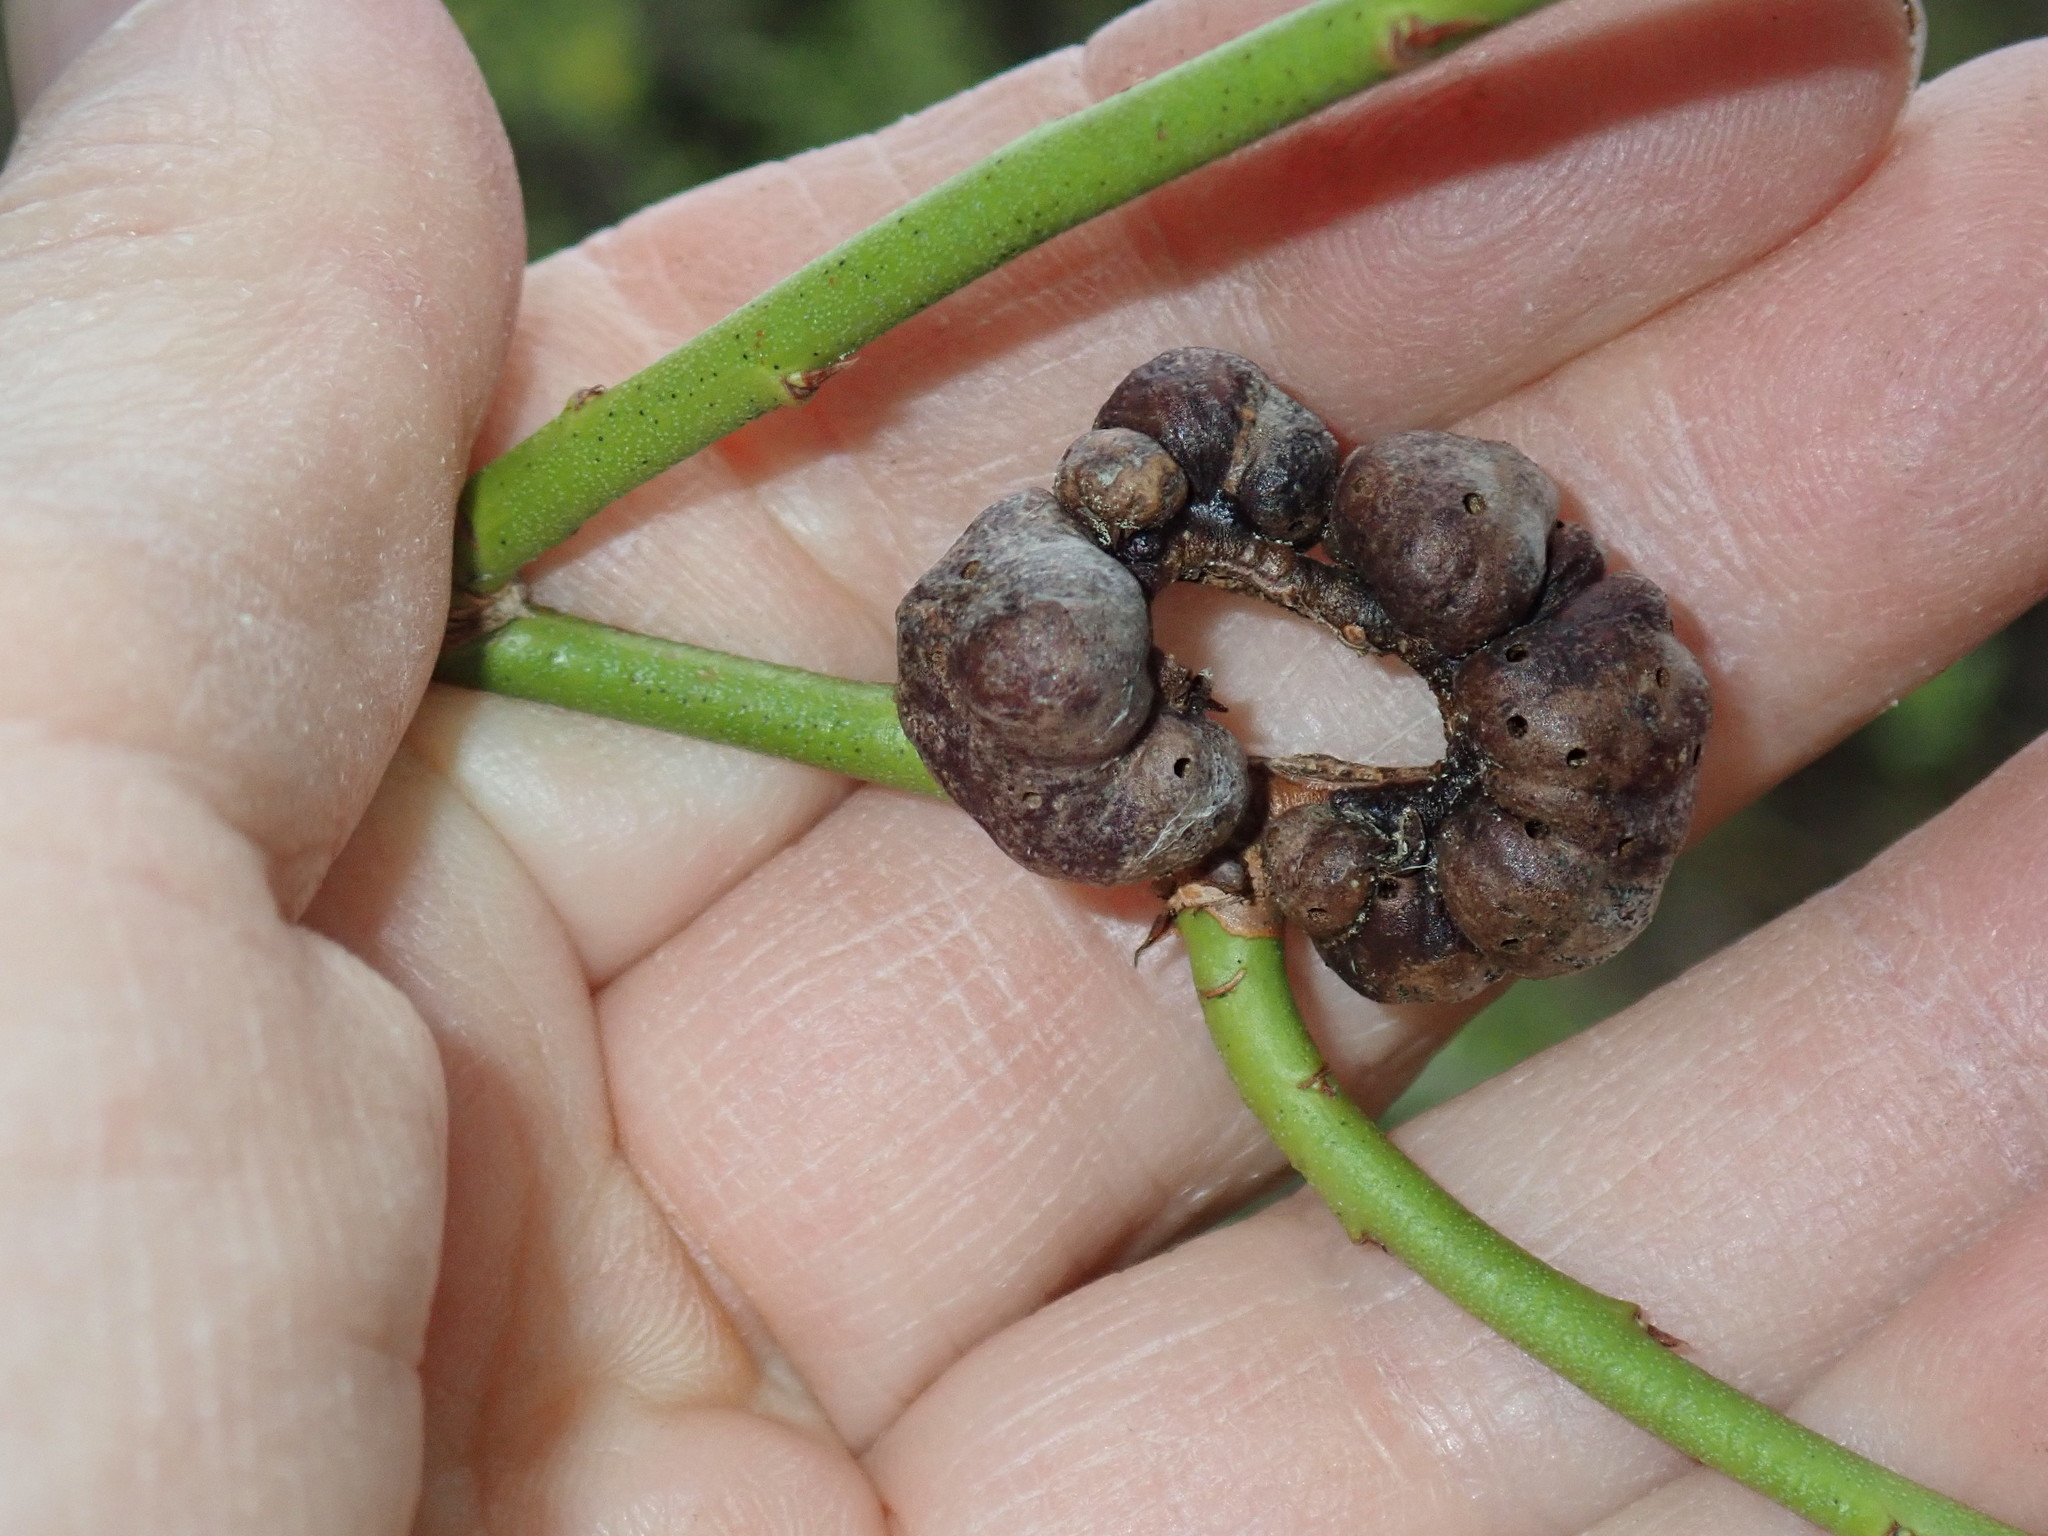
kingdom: Animalia
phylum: Arthropoda
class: Insecta
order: Hymenoptera
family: Pteromalidae
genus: Hemadas
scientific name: Hemadas nubilipennis
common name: Blueberry stem gall wasp
